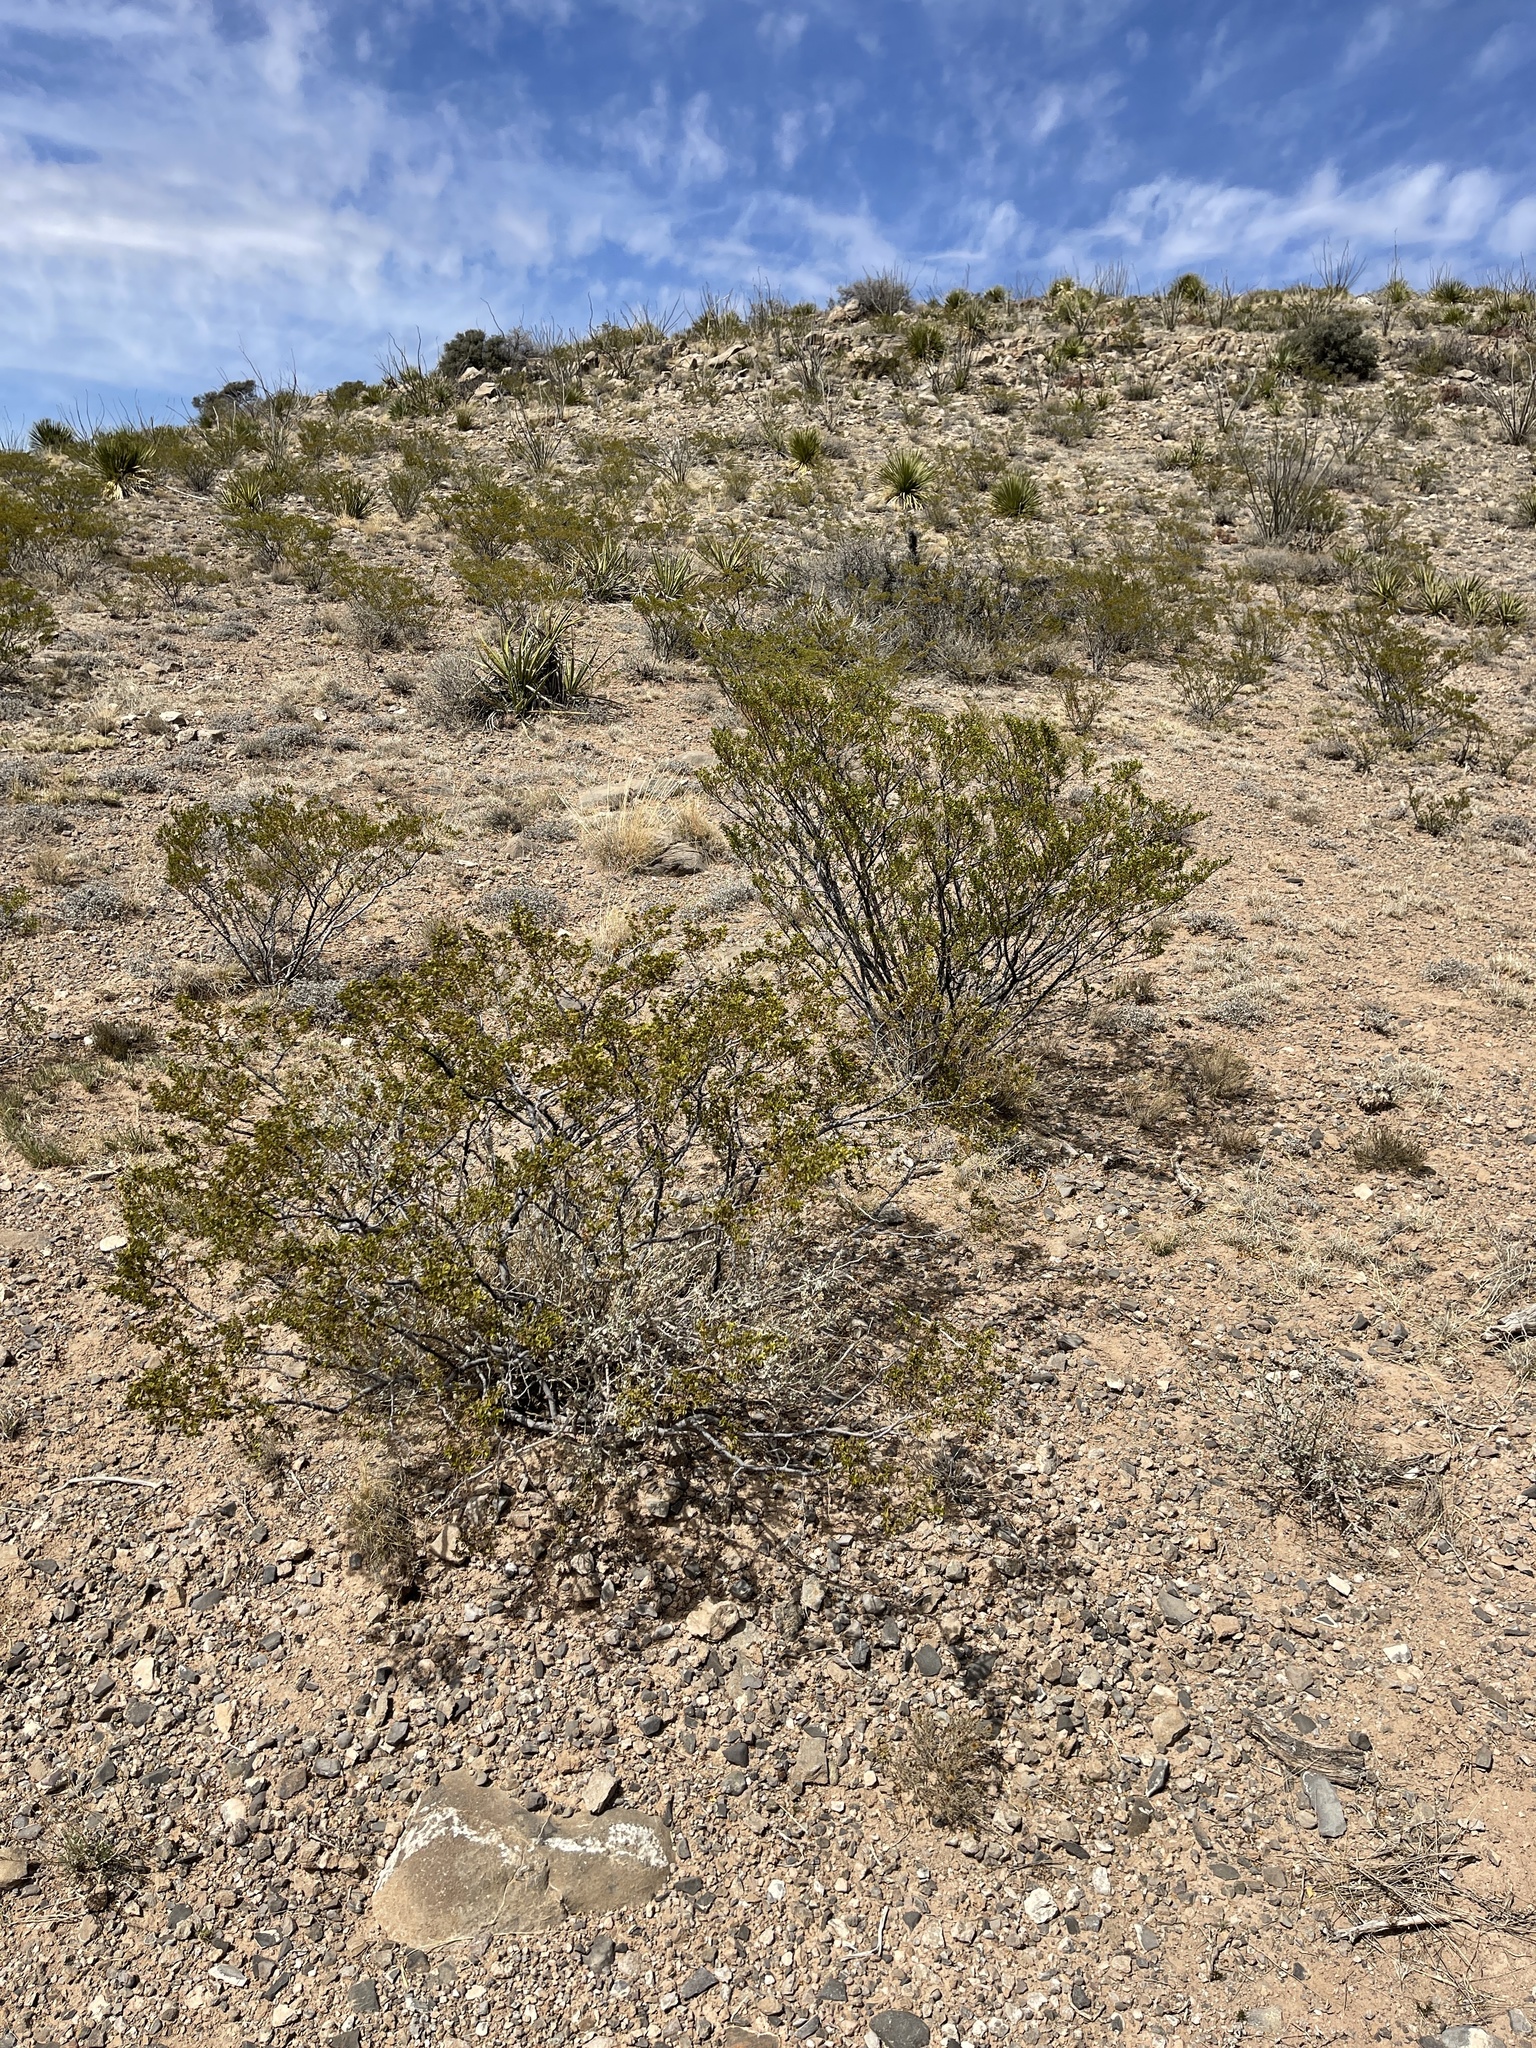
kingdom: Plantae
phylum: Tracheophyta
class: Magnoliopsida
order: Zygophyllales
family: Zygophyllaceae
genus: Larrea
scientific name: Larrea tridentata
